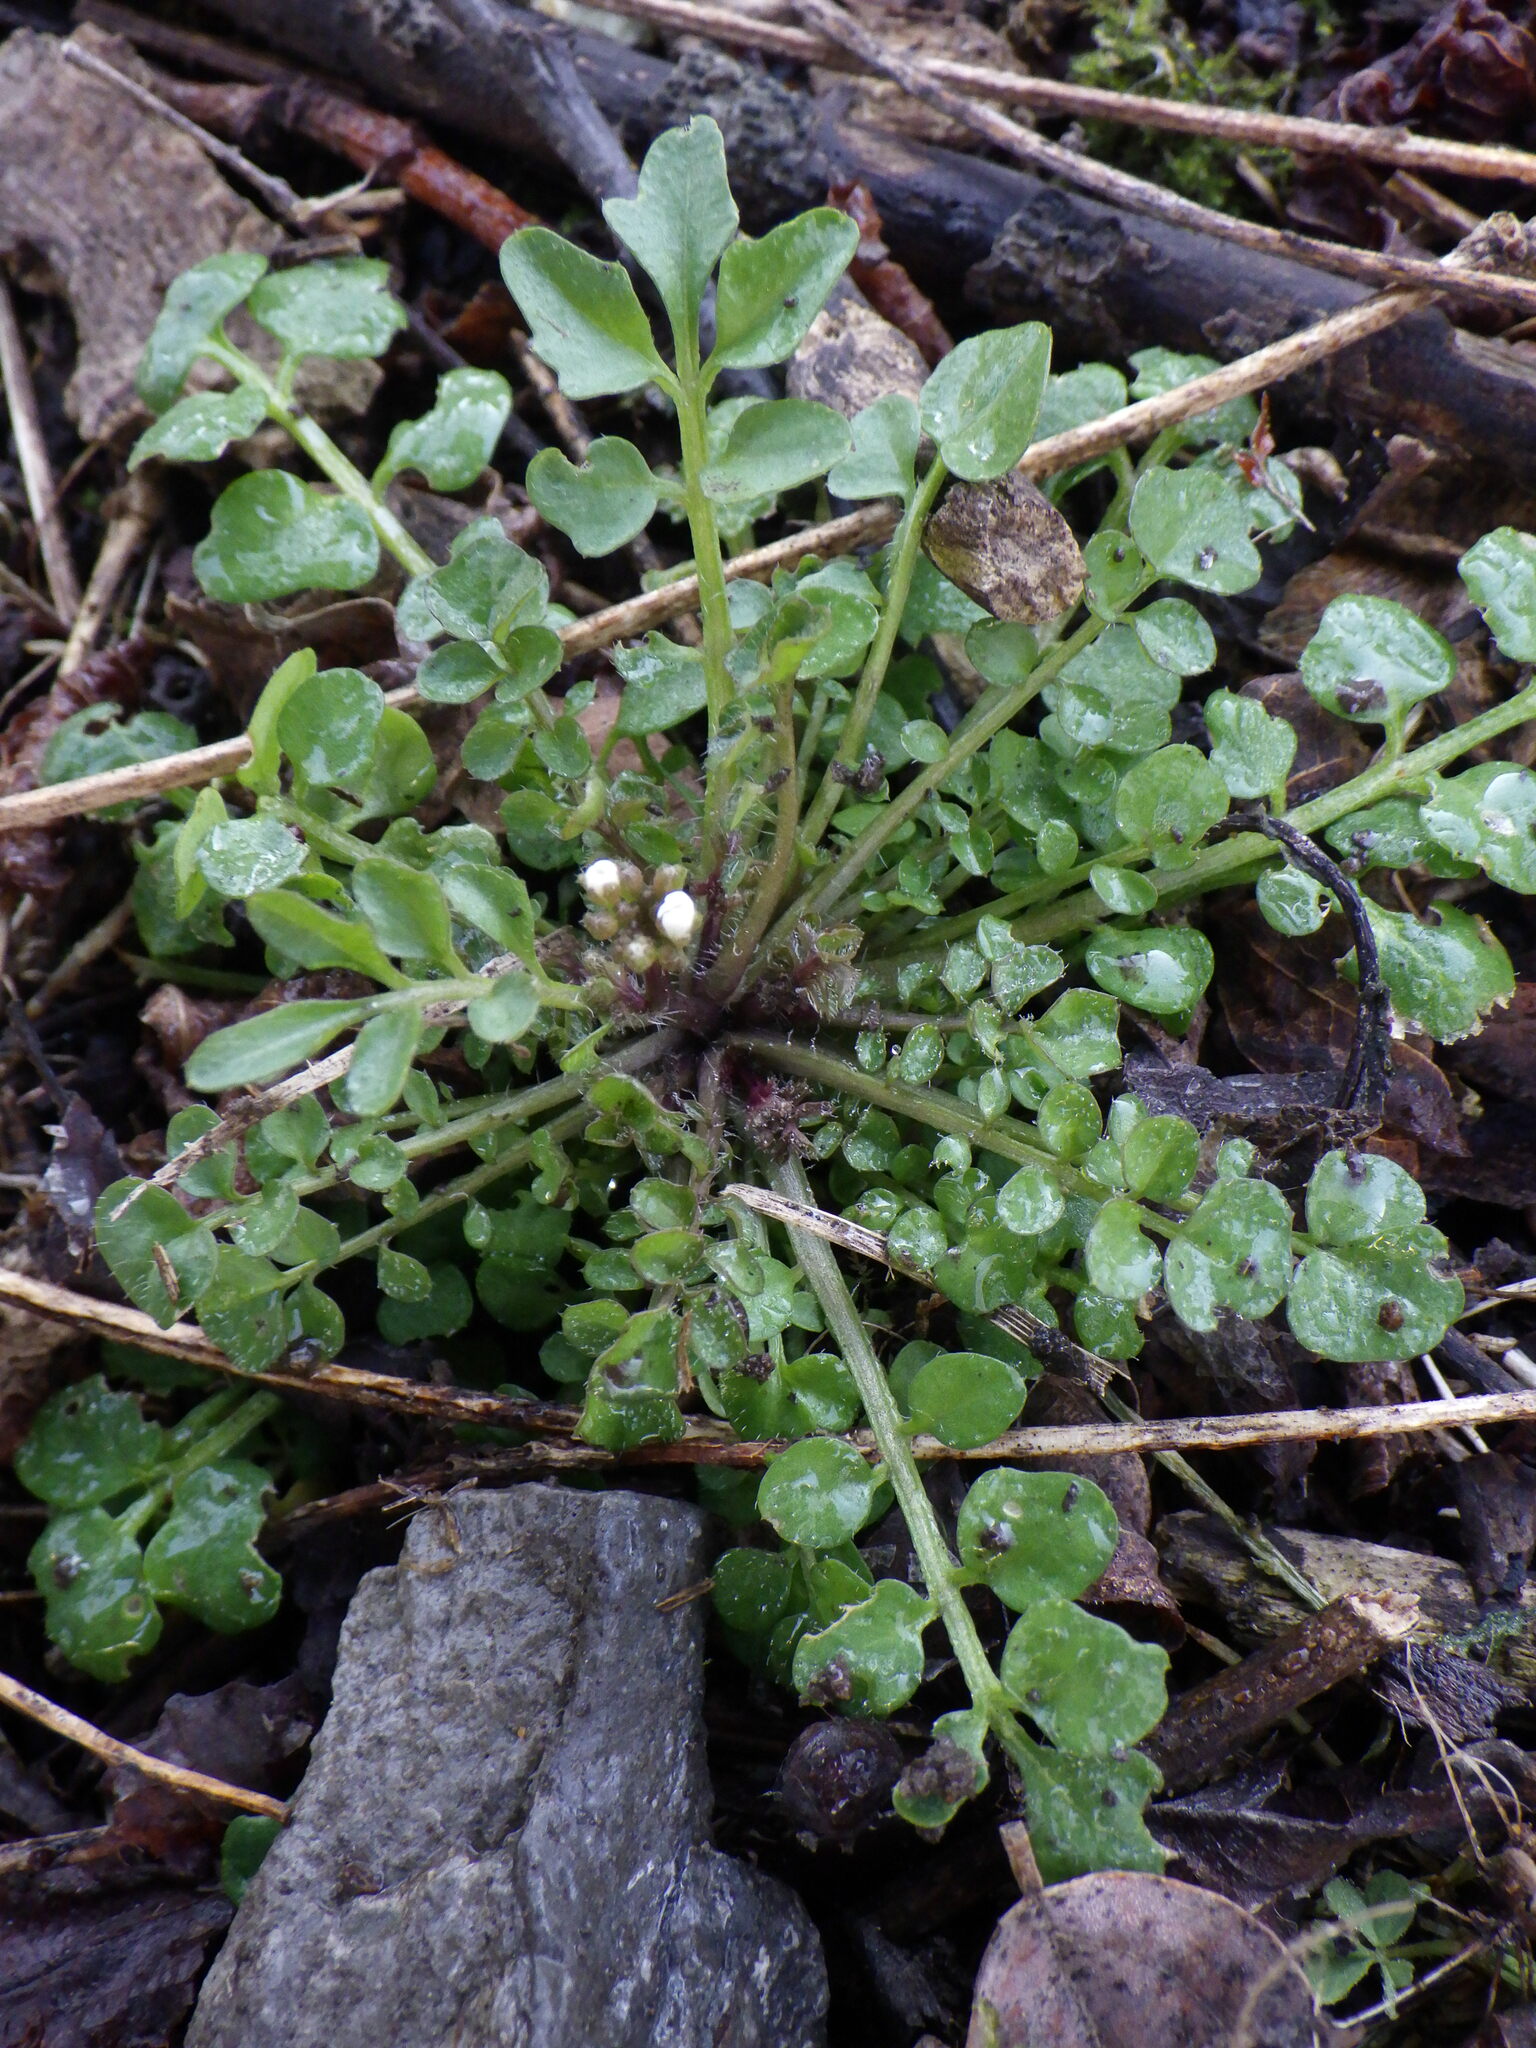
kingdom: Plantae
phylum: Tracheophyta
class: Magnoliopsida
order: Brassicales
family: Brassicaceae
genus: Cardamine
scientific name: Cardamine hirsuta
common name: Hairy bittercress
